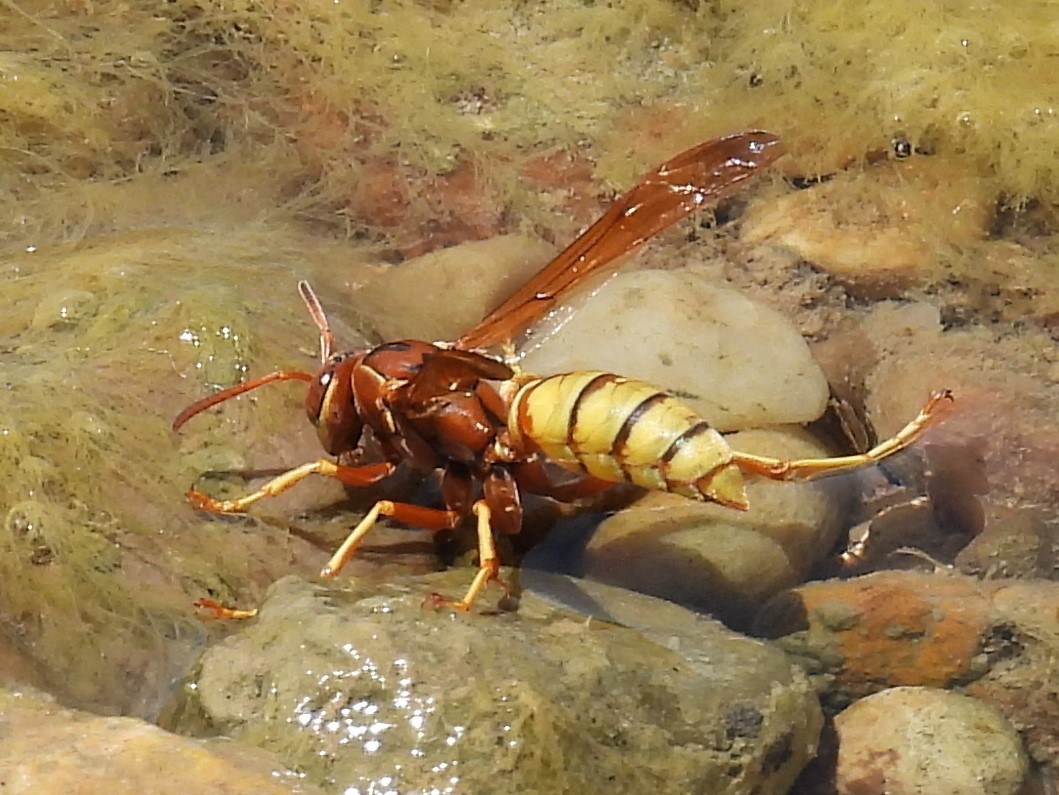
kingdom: Animalia
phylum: Arthropoda
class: Insecta
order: Hymenoptera
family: Eumenidae
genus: Polistes
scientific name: Polistes aurifer
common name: Paper wasp
